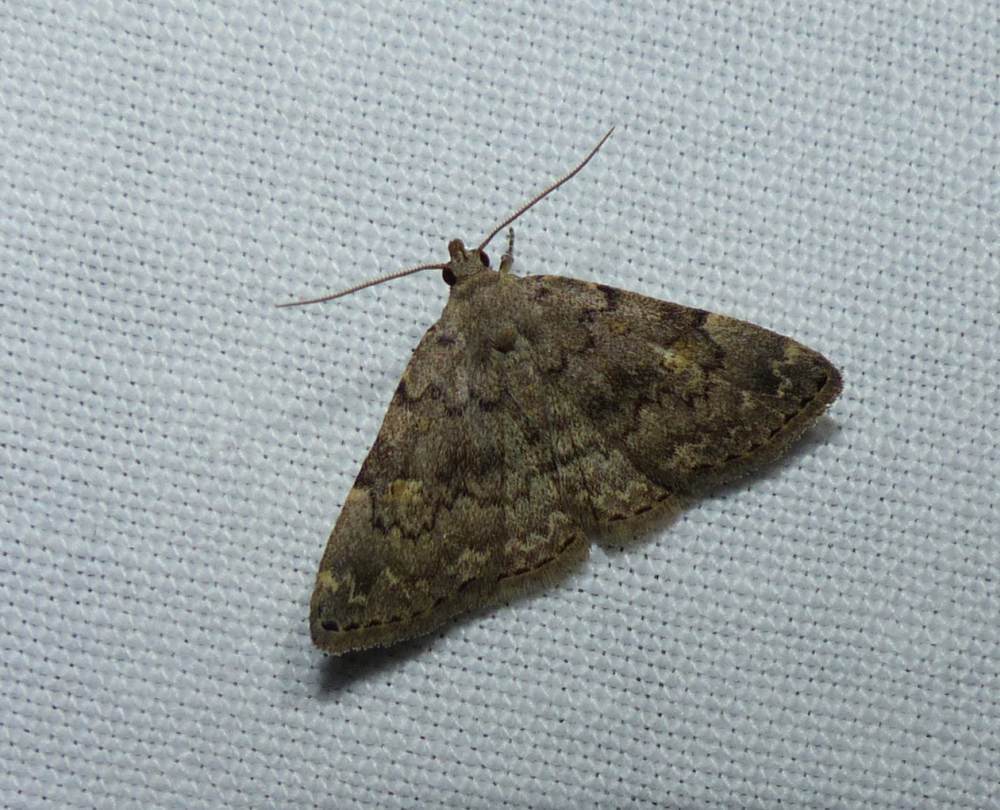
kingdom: Animalia
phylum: Arthropoda
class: Insecta
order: Lepidoptera
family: Erebidae
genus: Idia
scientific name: Idia aemula
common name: Common idia moth
